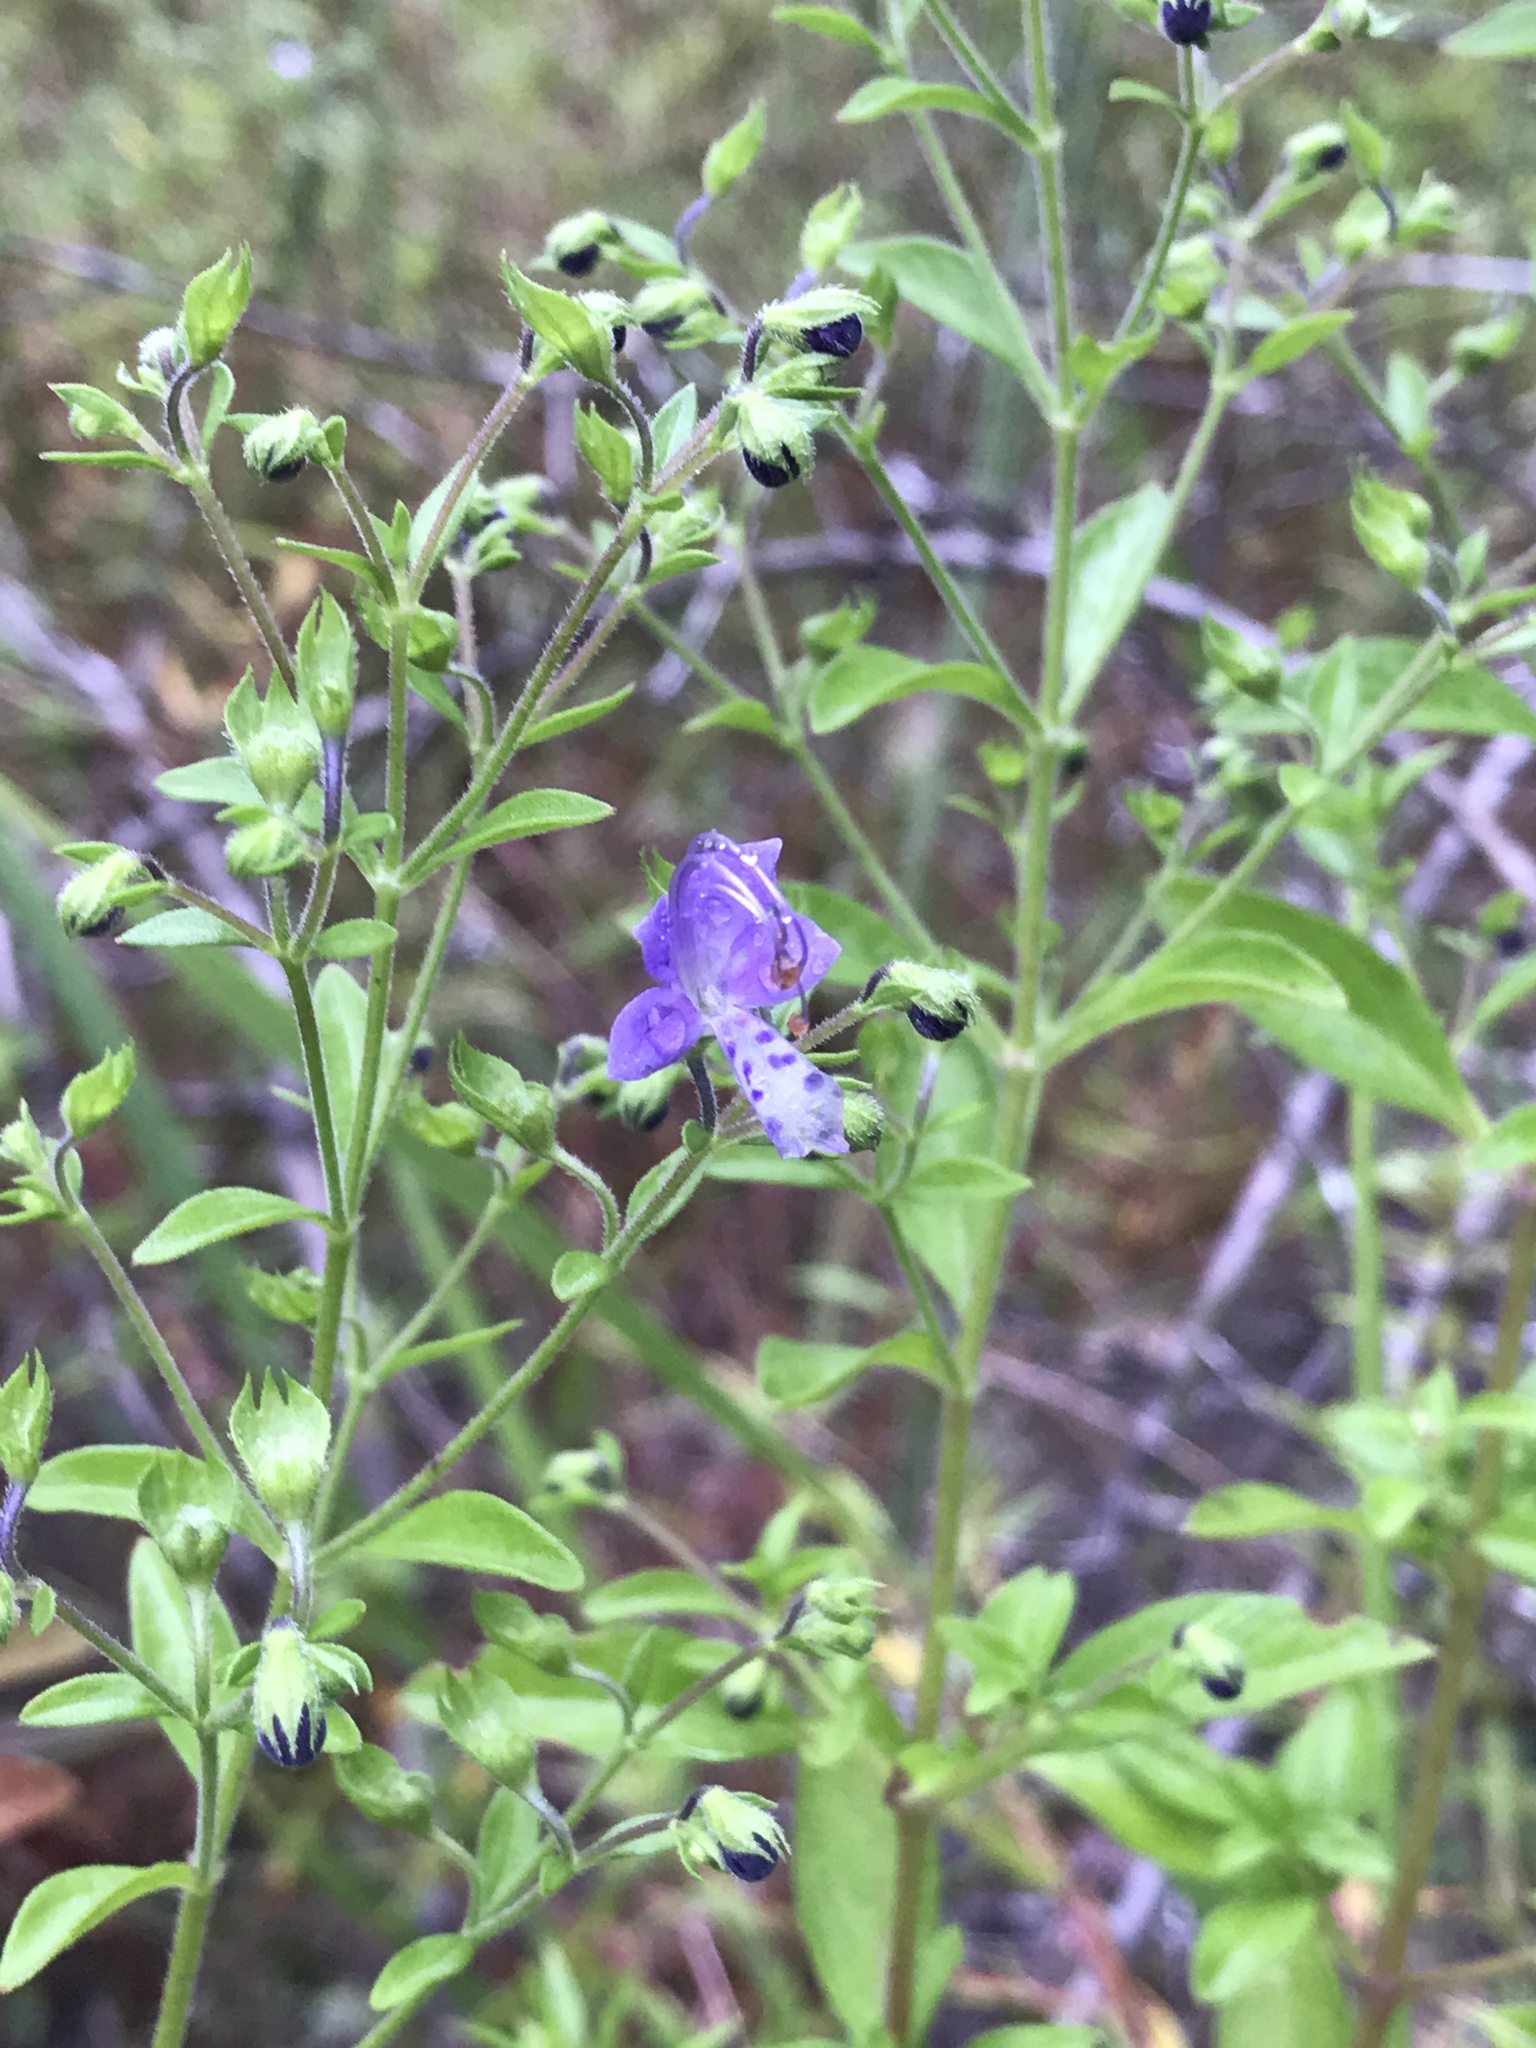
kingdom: Plantae
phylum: Tracheophyta
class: Magnoliopsida
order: Lamiales
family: Lamiaceae
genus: Trichostema
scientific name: Trichostema dichotomum
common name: Bastard pennyroyal
